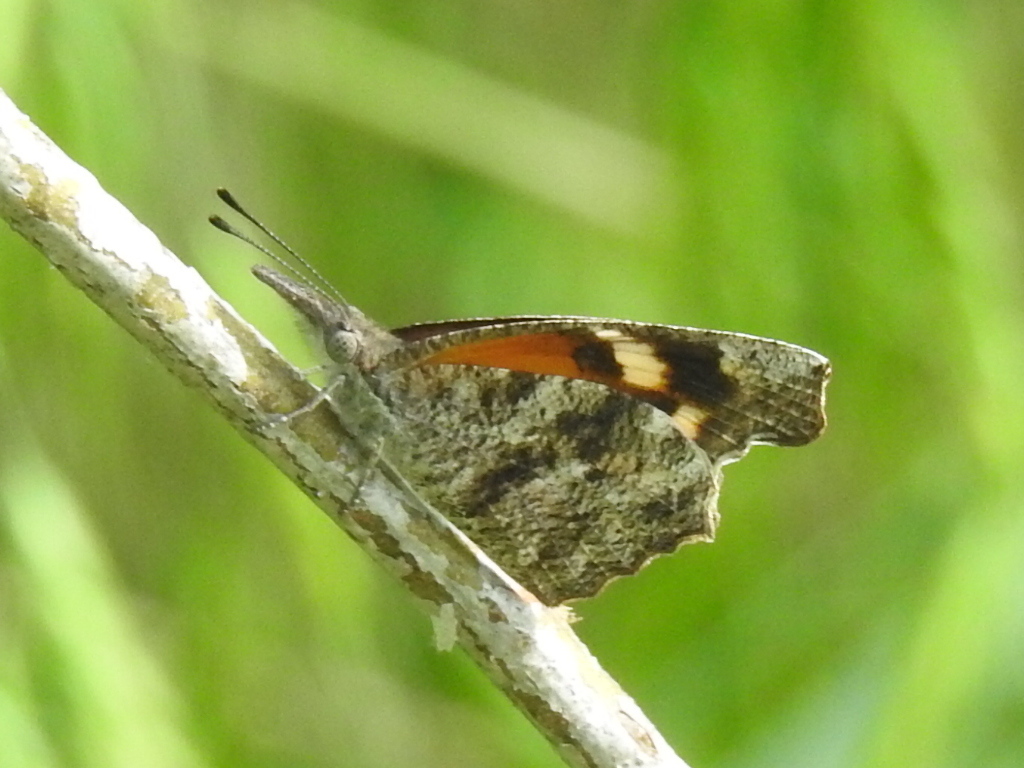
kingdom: Animalia
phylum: Arthropoda
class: Insecta
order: Lepidoptera
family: Nymphalidae
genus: Libytheana
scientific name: Libytheana carinenta
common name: American snout
